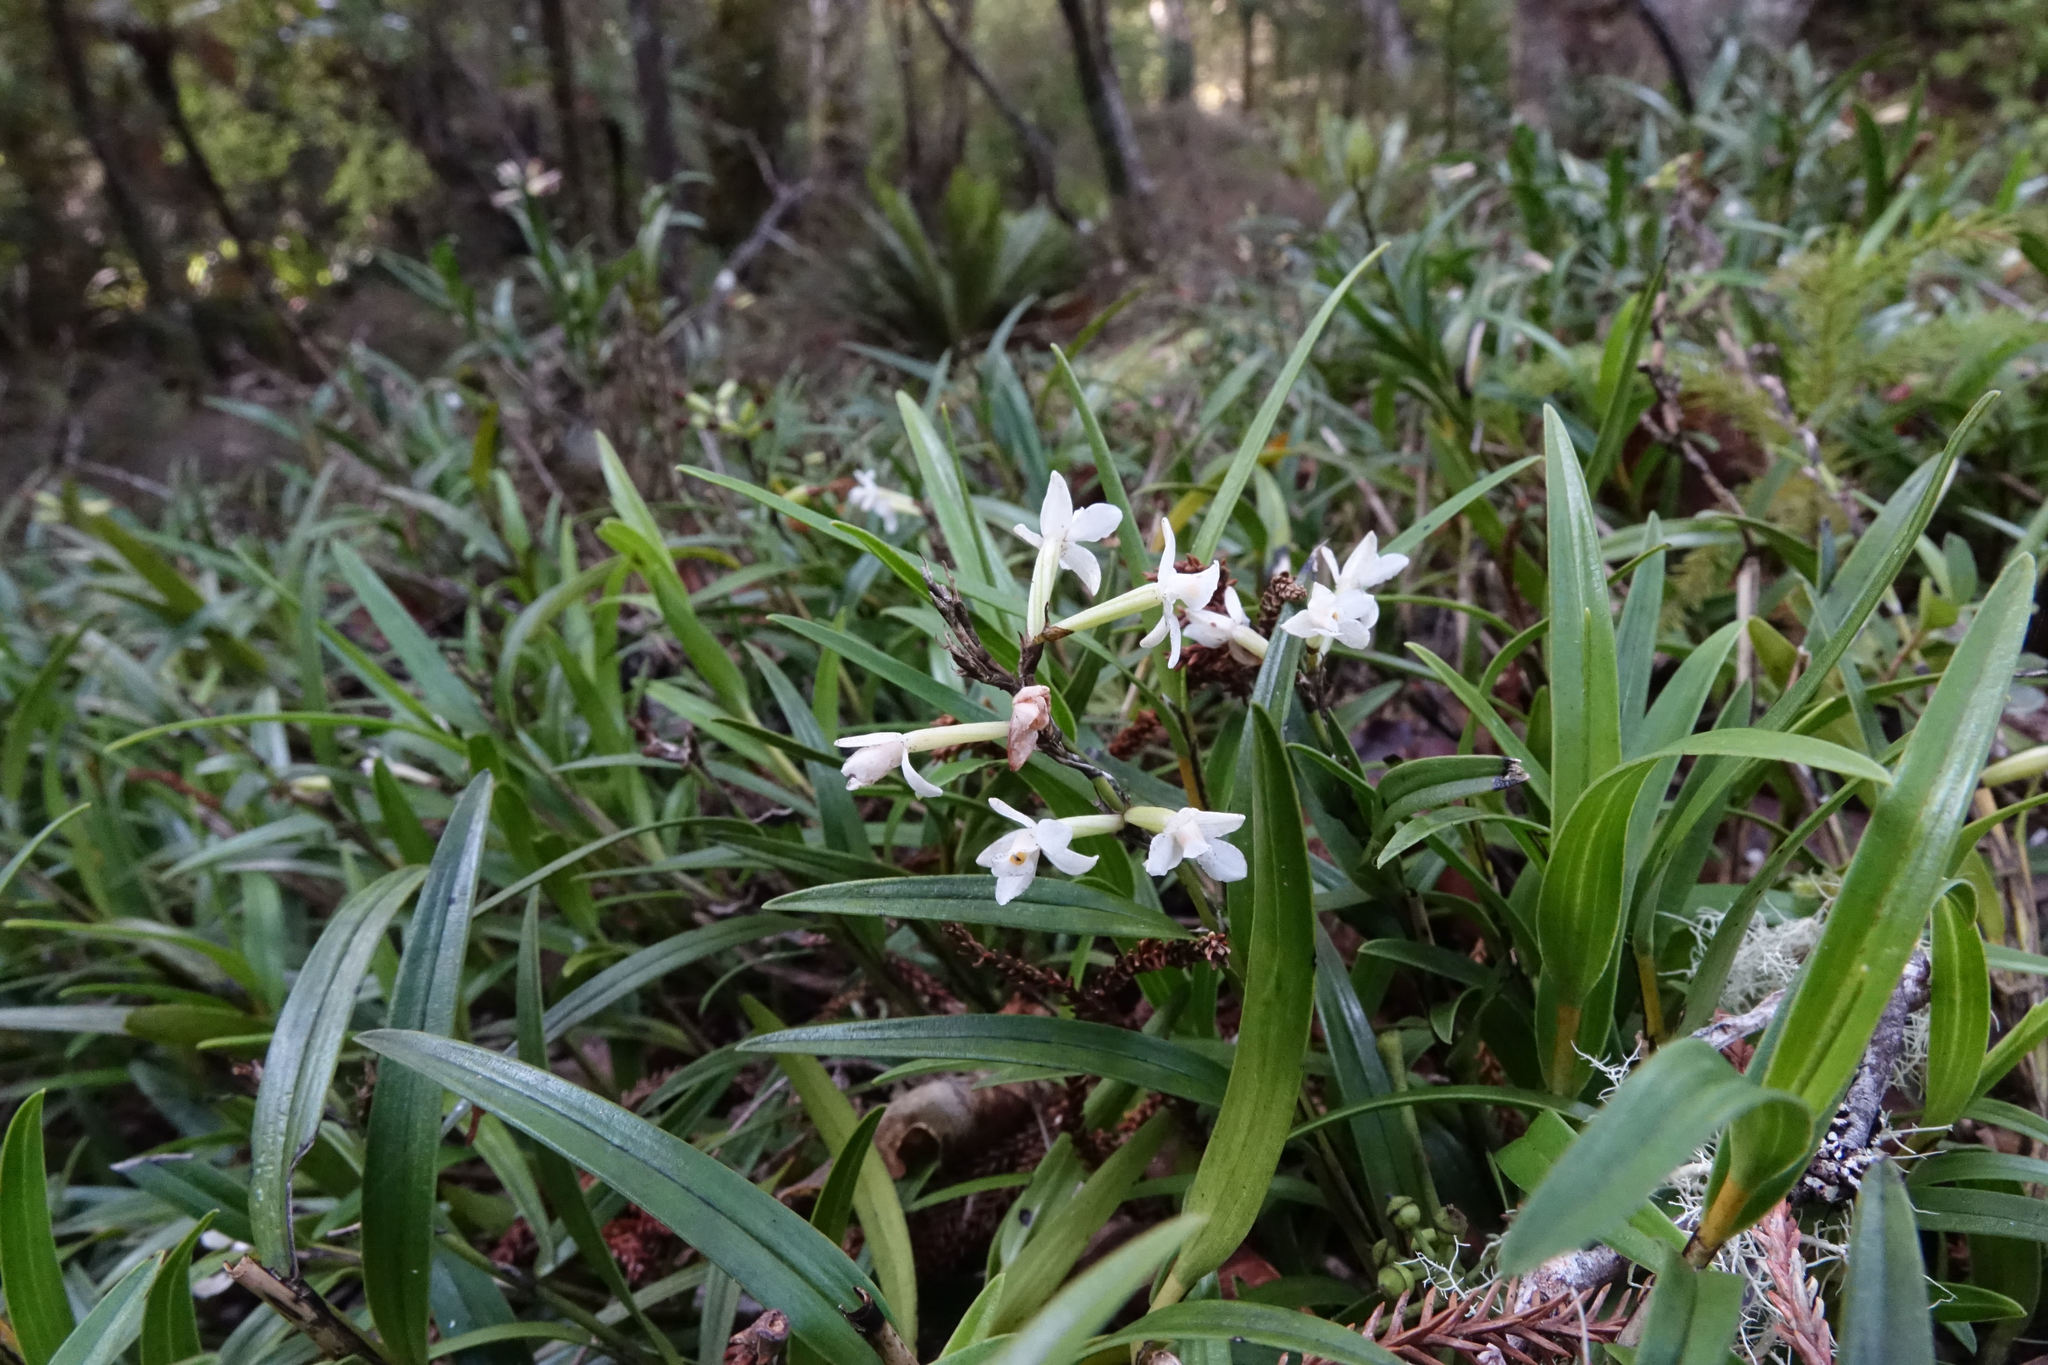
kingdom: Plantae
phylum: Tracheophyta
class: Liliopsida
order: Asparagales
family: Orchidaceae
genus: Earina
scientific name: Earina autumnalis
